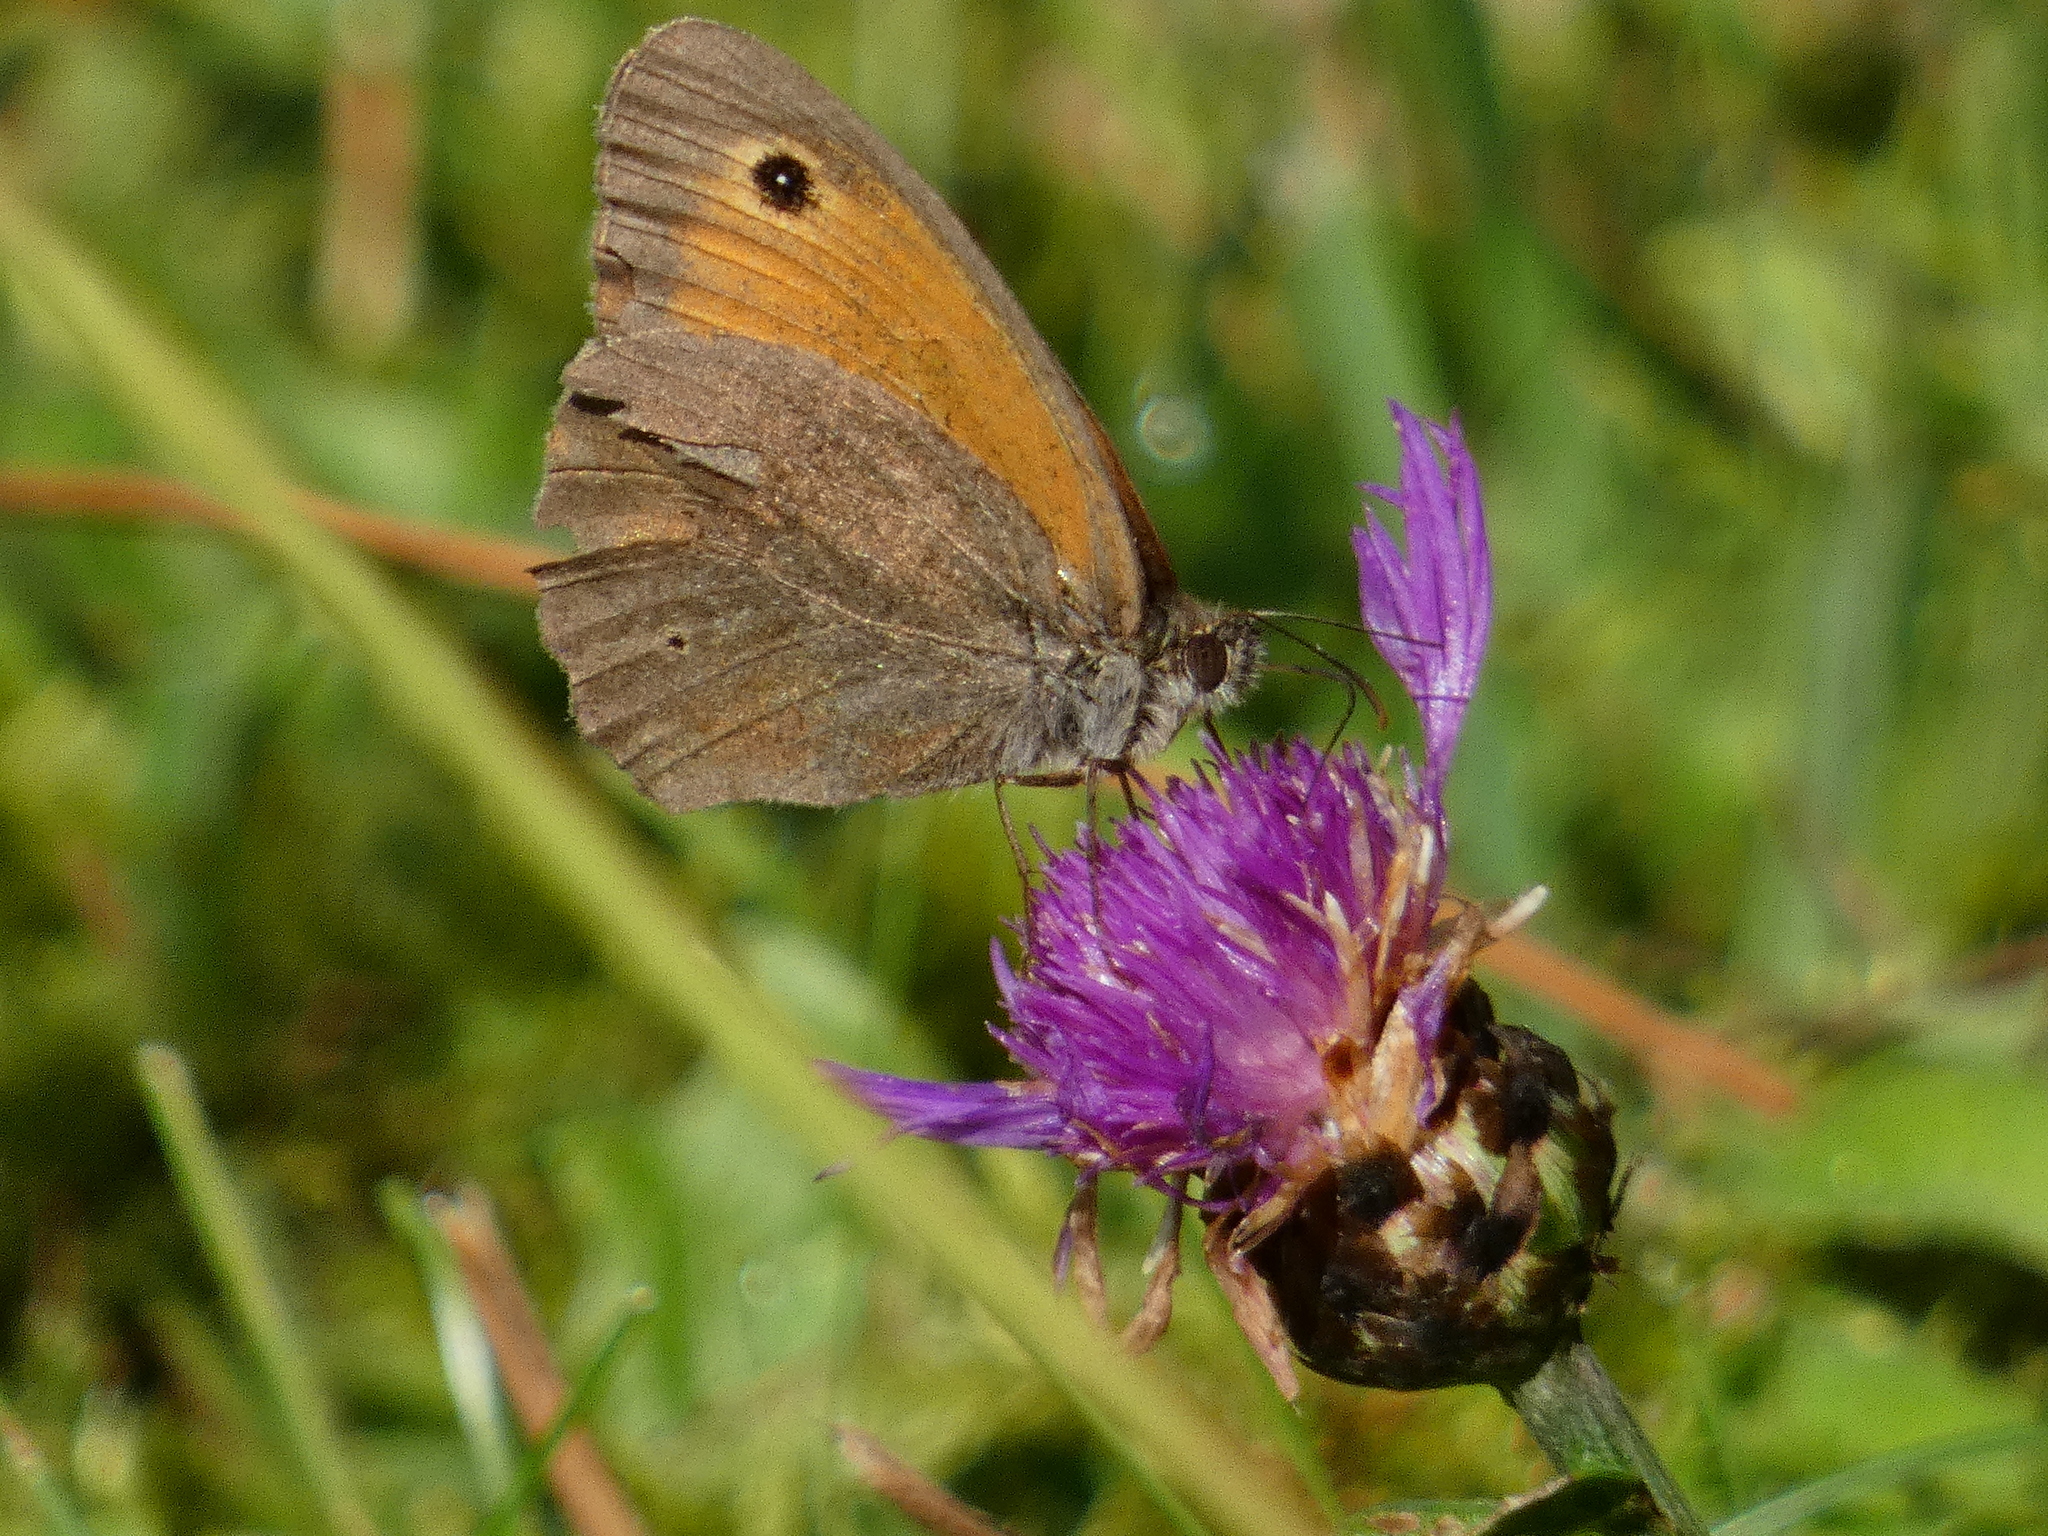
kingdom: Animalia
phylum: Arthropoda
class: Insecta
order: Lepidoptera
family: Nymphalidae
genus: Maniola
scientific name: Maniola jurtina
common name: Meadow brown
